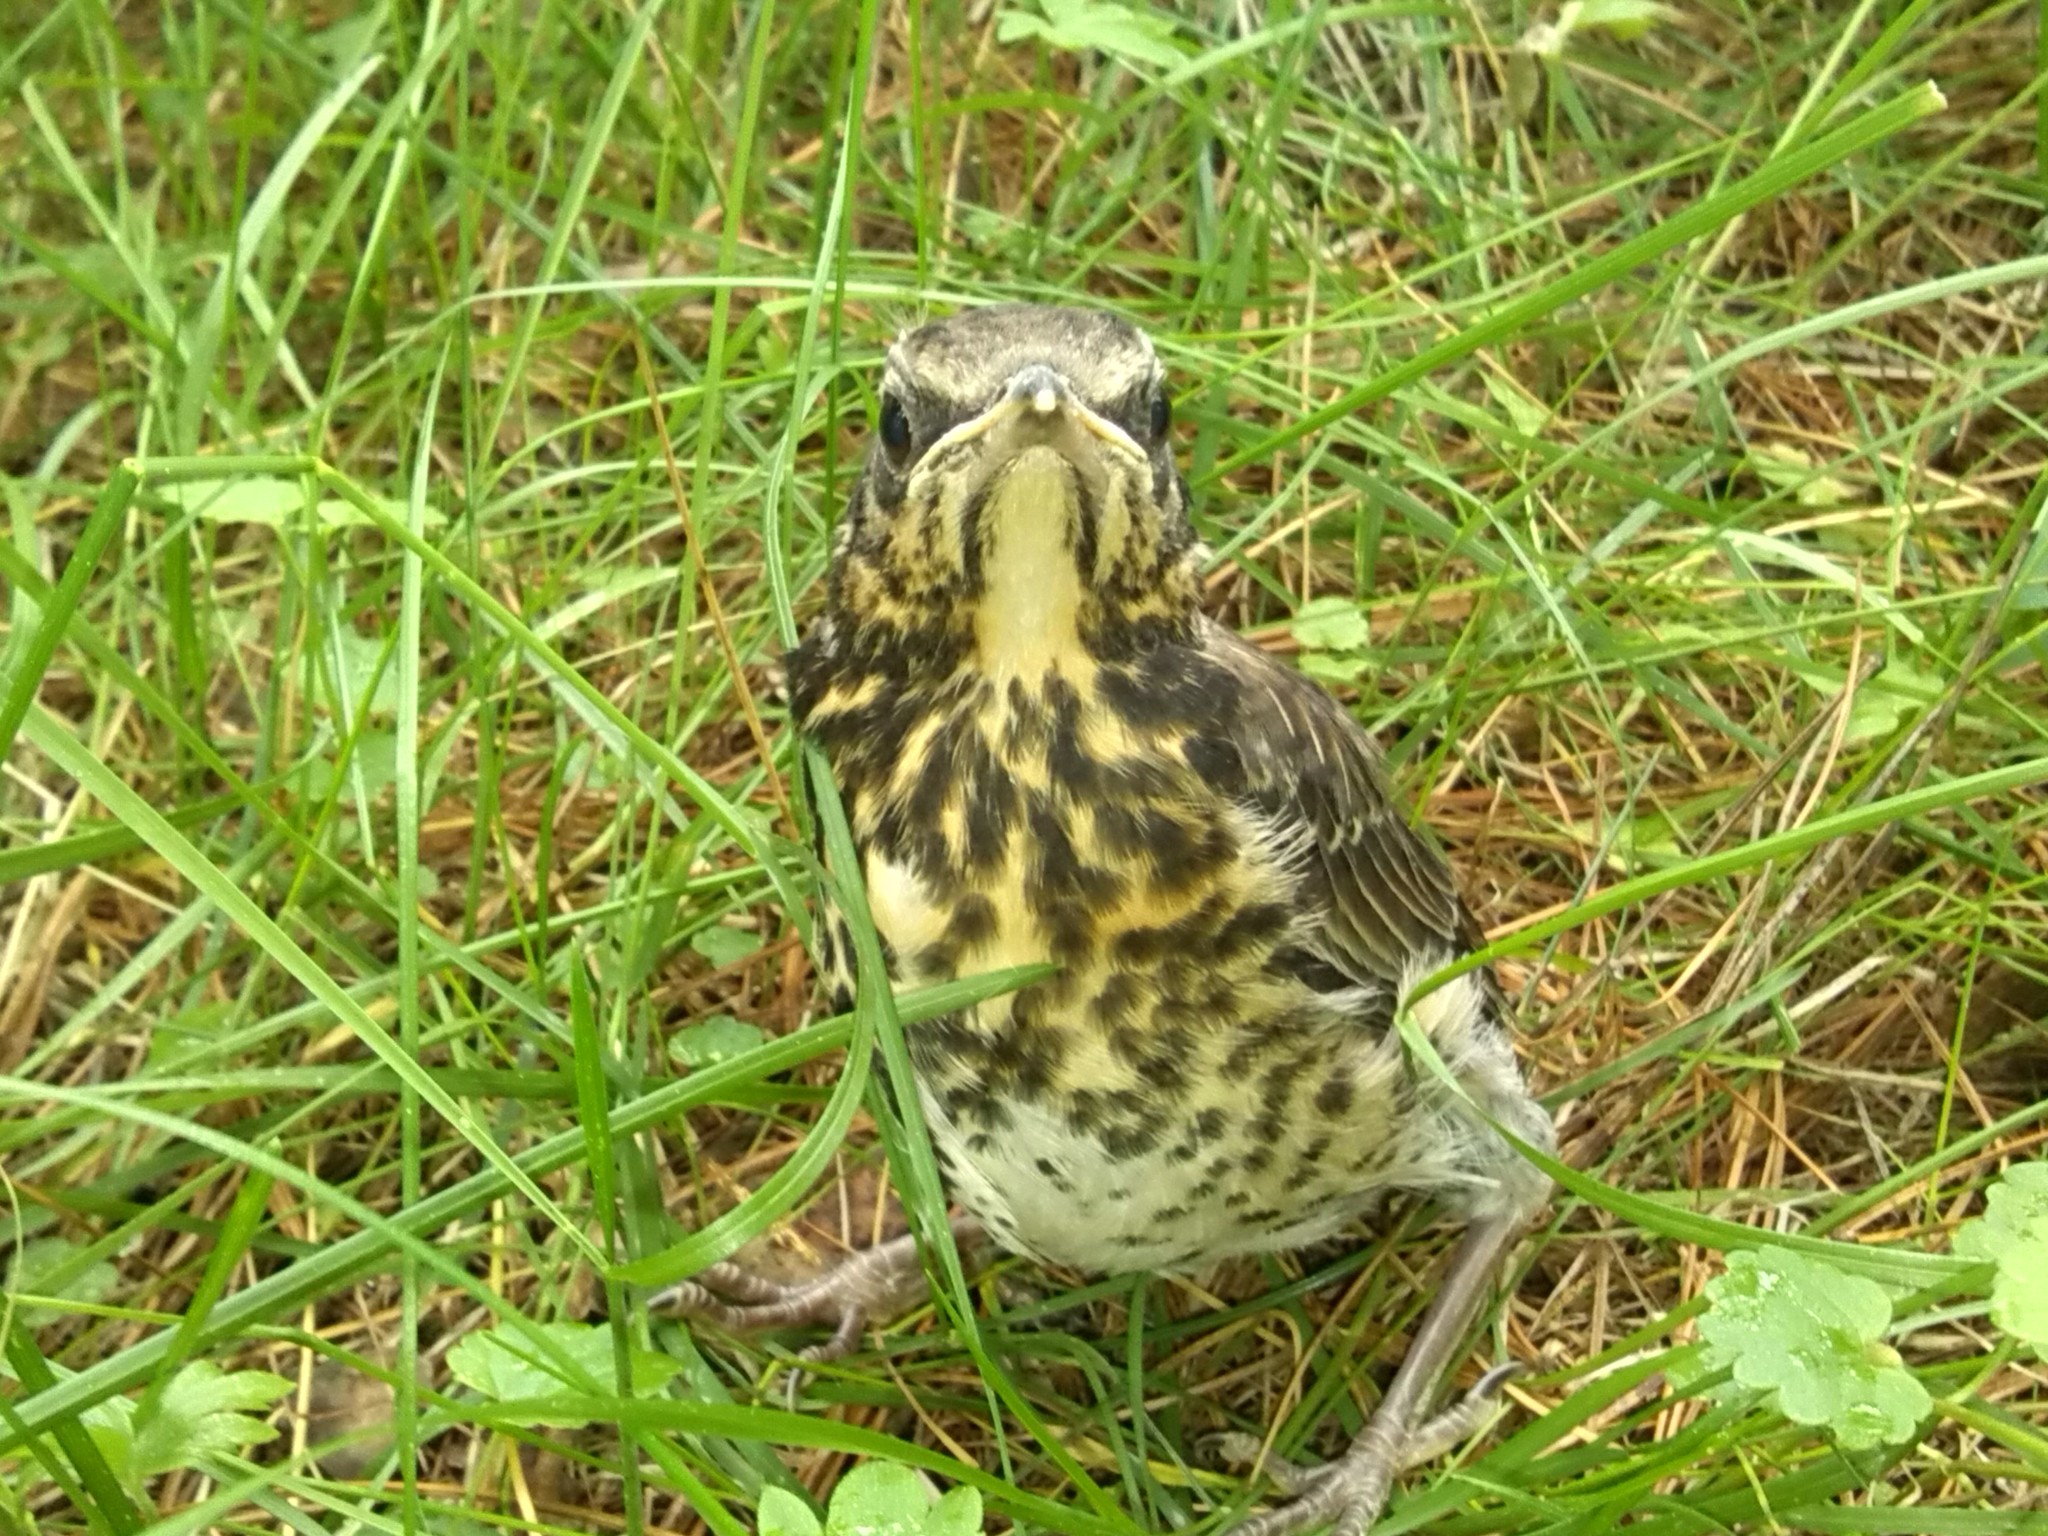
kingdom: Animalia
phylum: Chordata
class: Aves
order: Passeriformes
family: Turdidae
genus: Turdus
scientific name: Turdus pilaris
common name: Fieldfare
